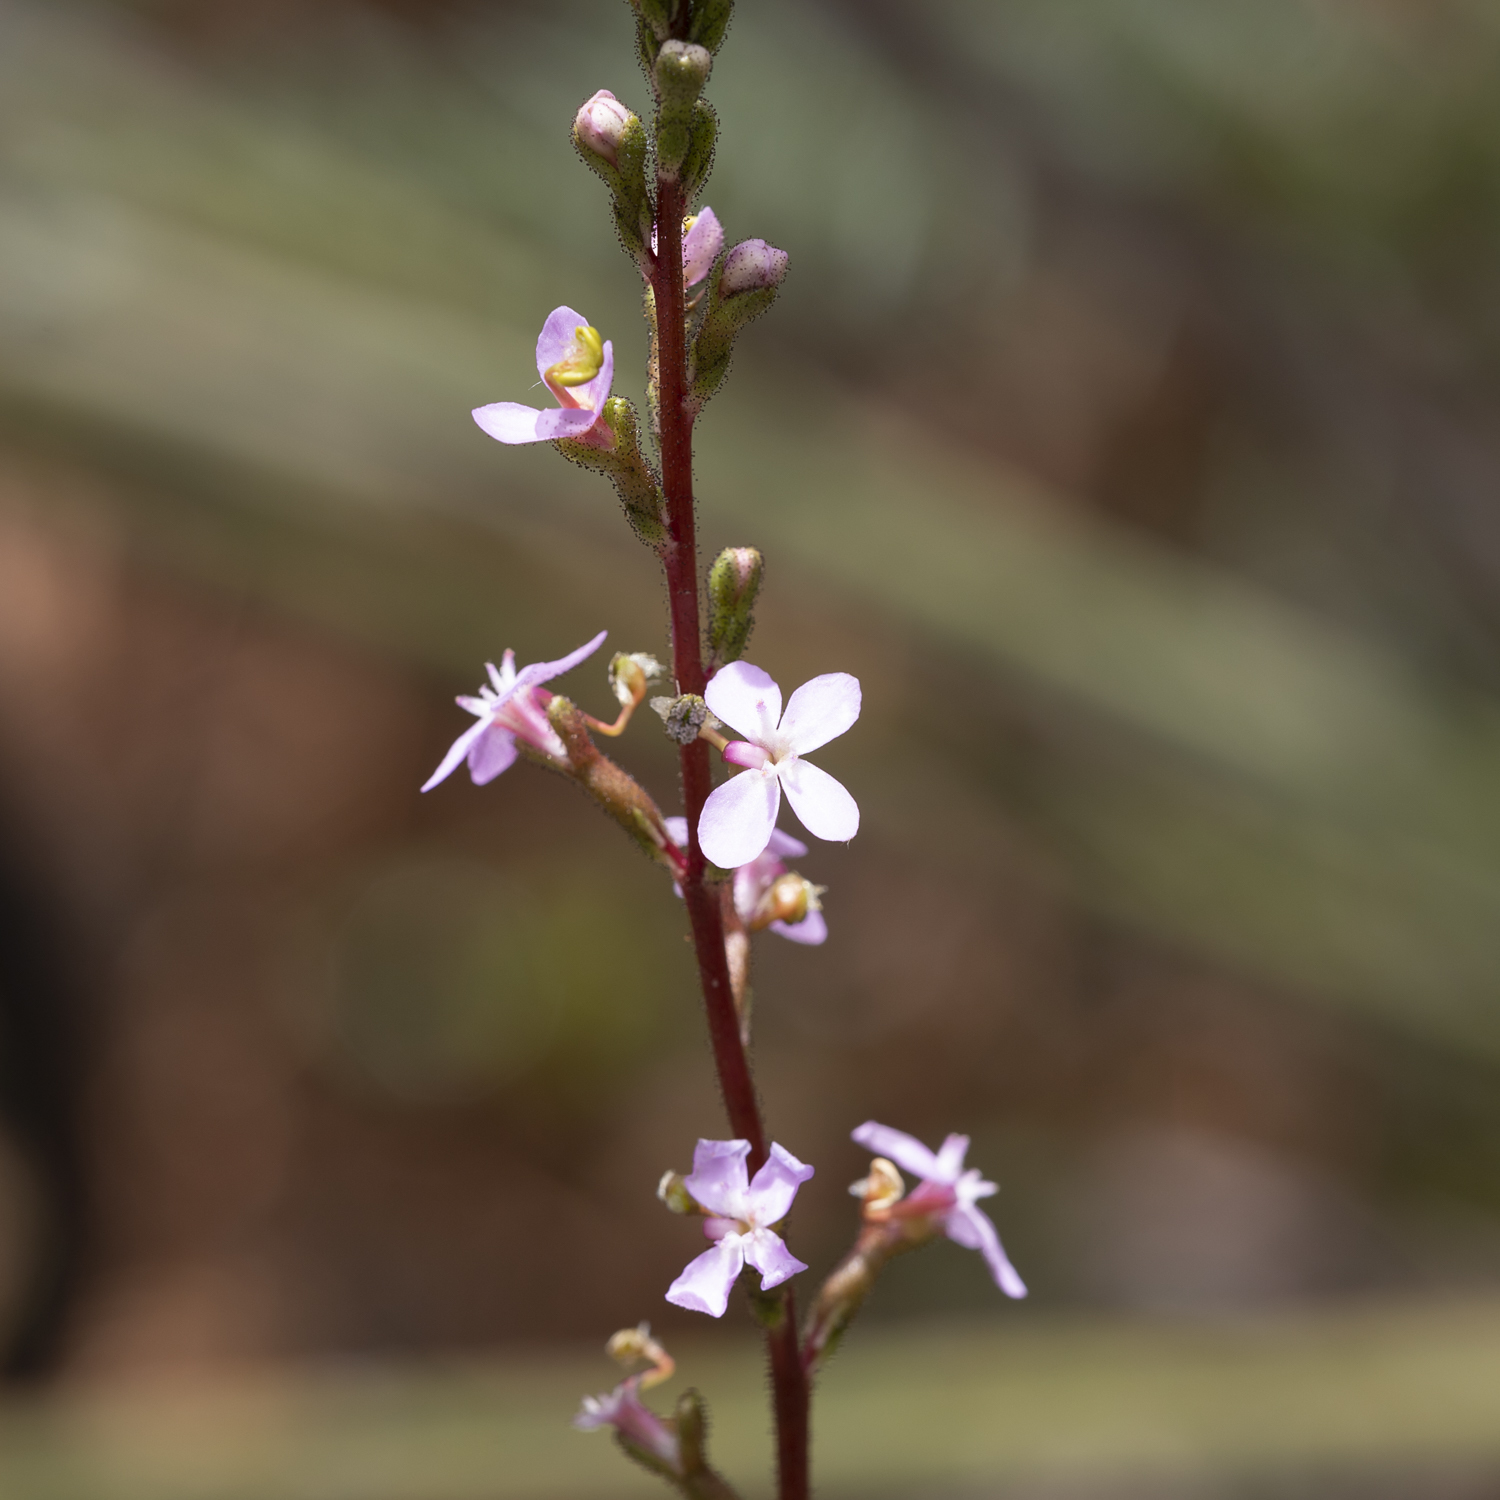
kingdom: Plantae
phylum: Tracheophyta
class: Magnoliopsida
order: Asterales
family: Stylidiaceae
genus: Stylidium
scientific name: Stylidium armeria
